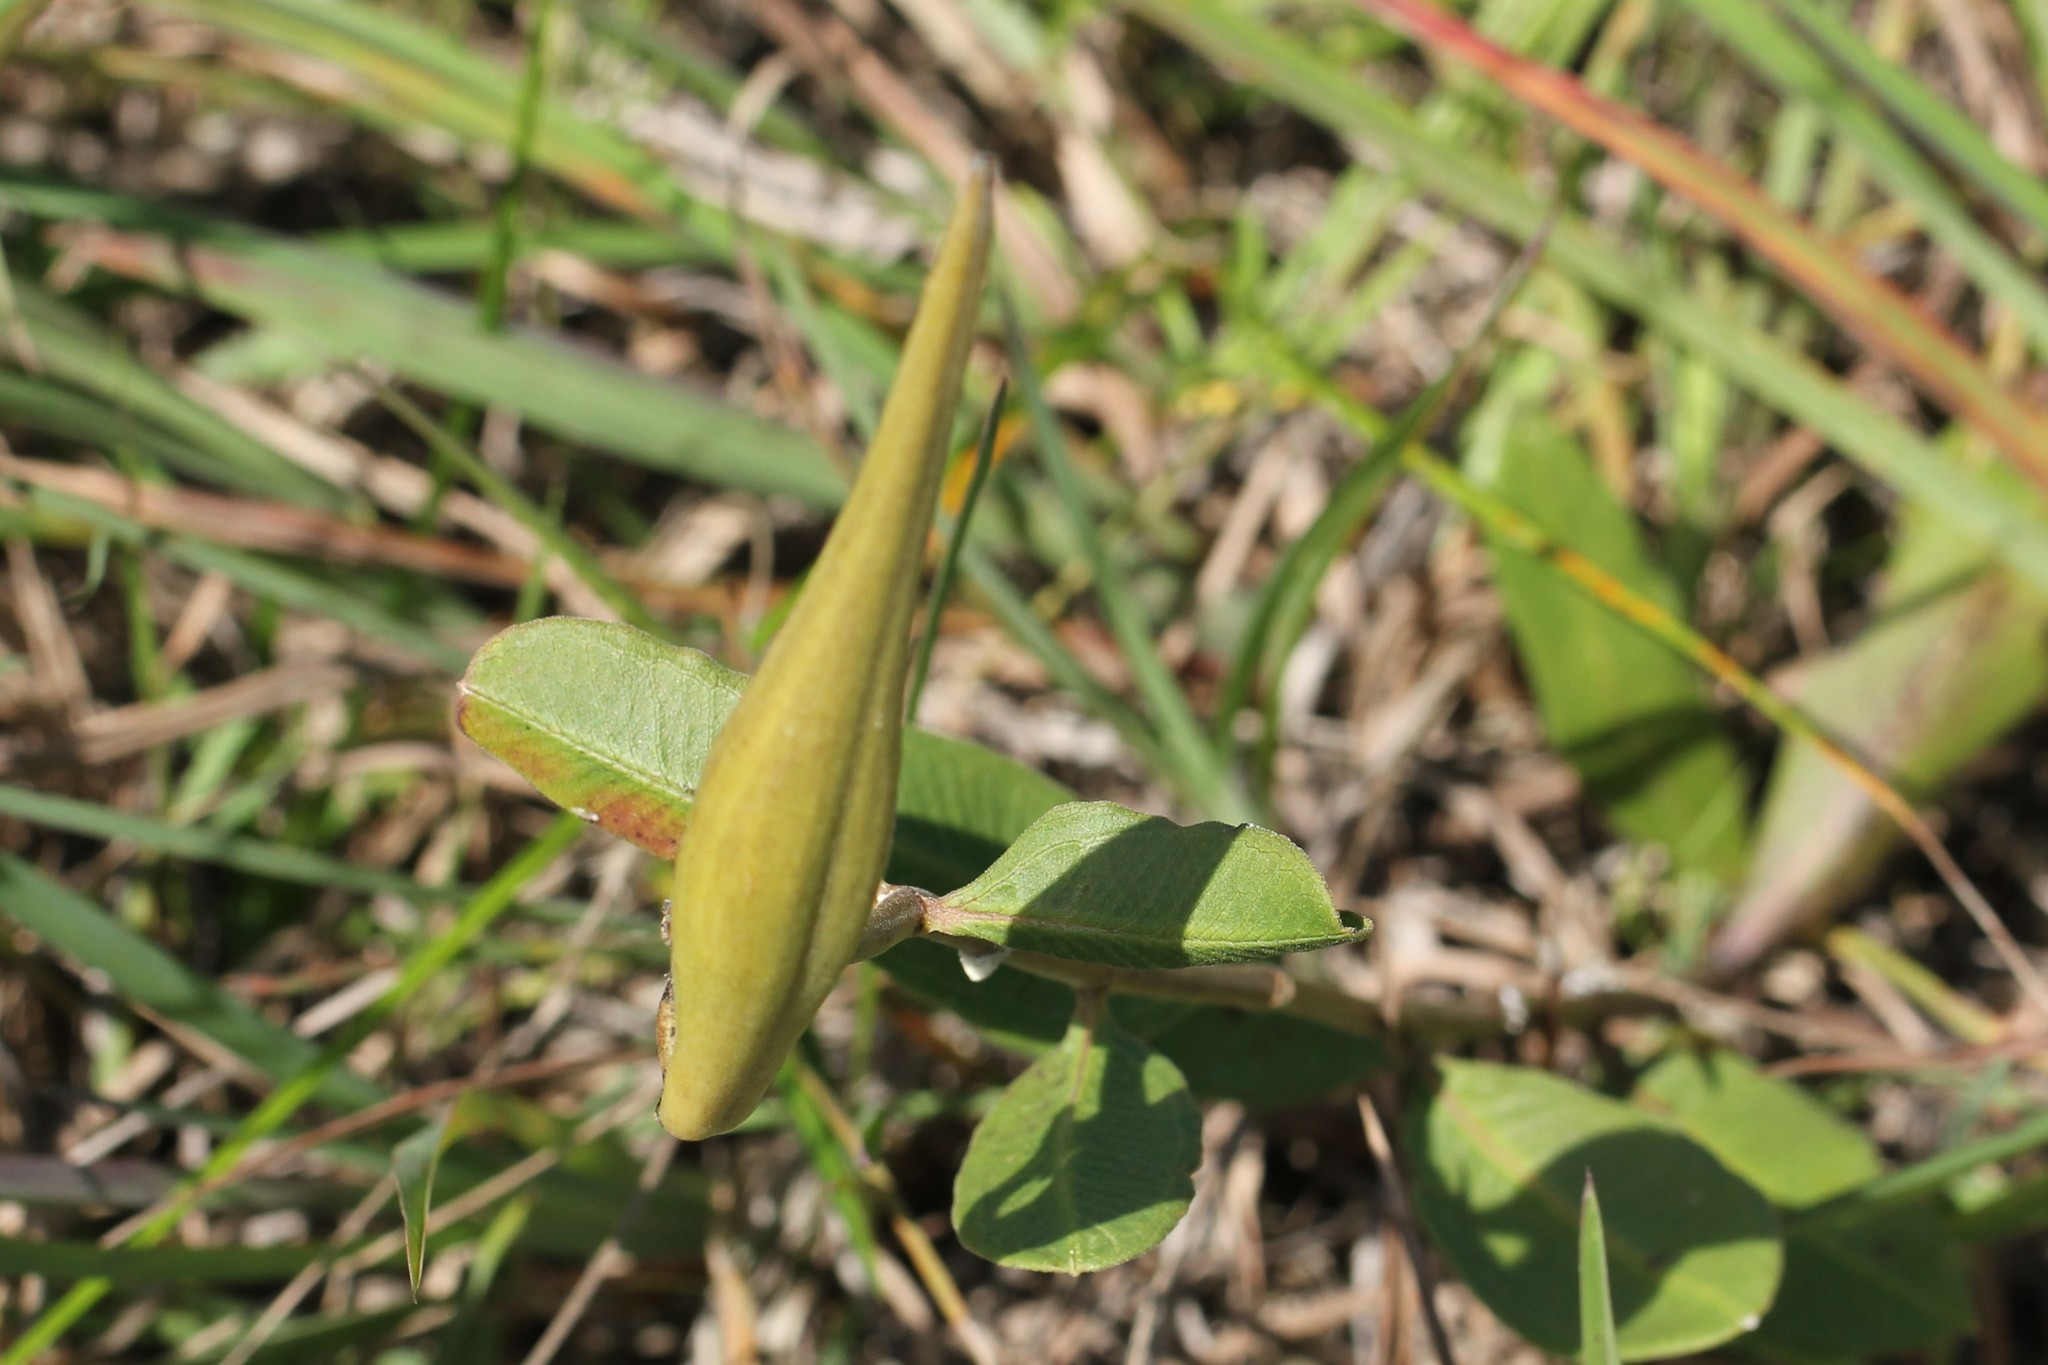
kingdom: Plantae
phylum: Tracheophyta
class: Magnoliopsida
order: Gentianales
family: Apocynaceae
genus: Asclepias
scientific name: Asclepias viridiflora
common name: Green comet milkweed
